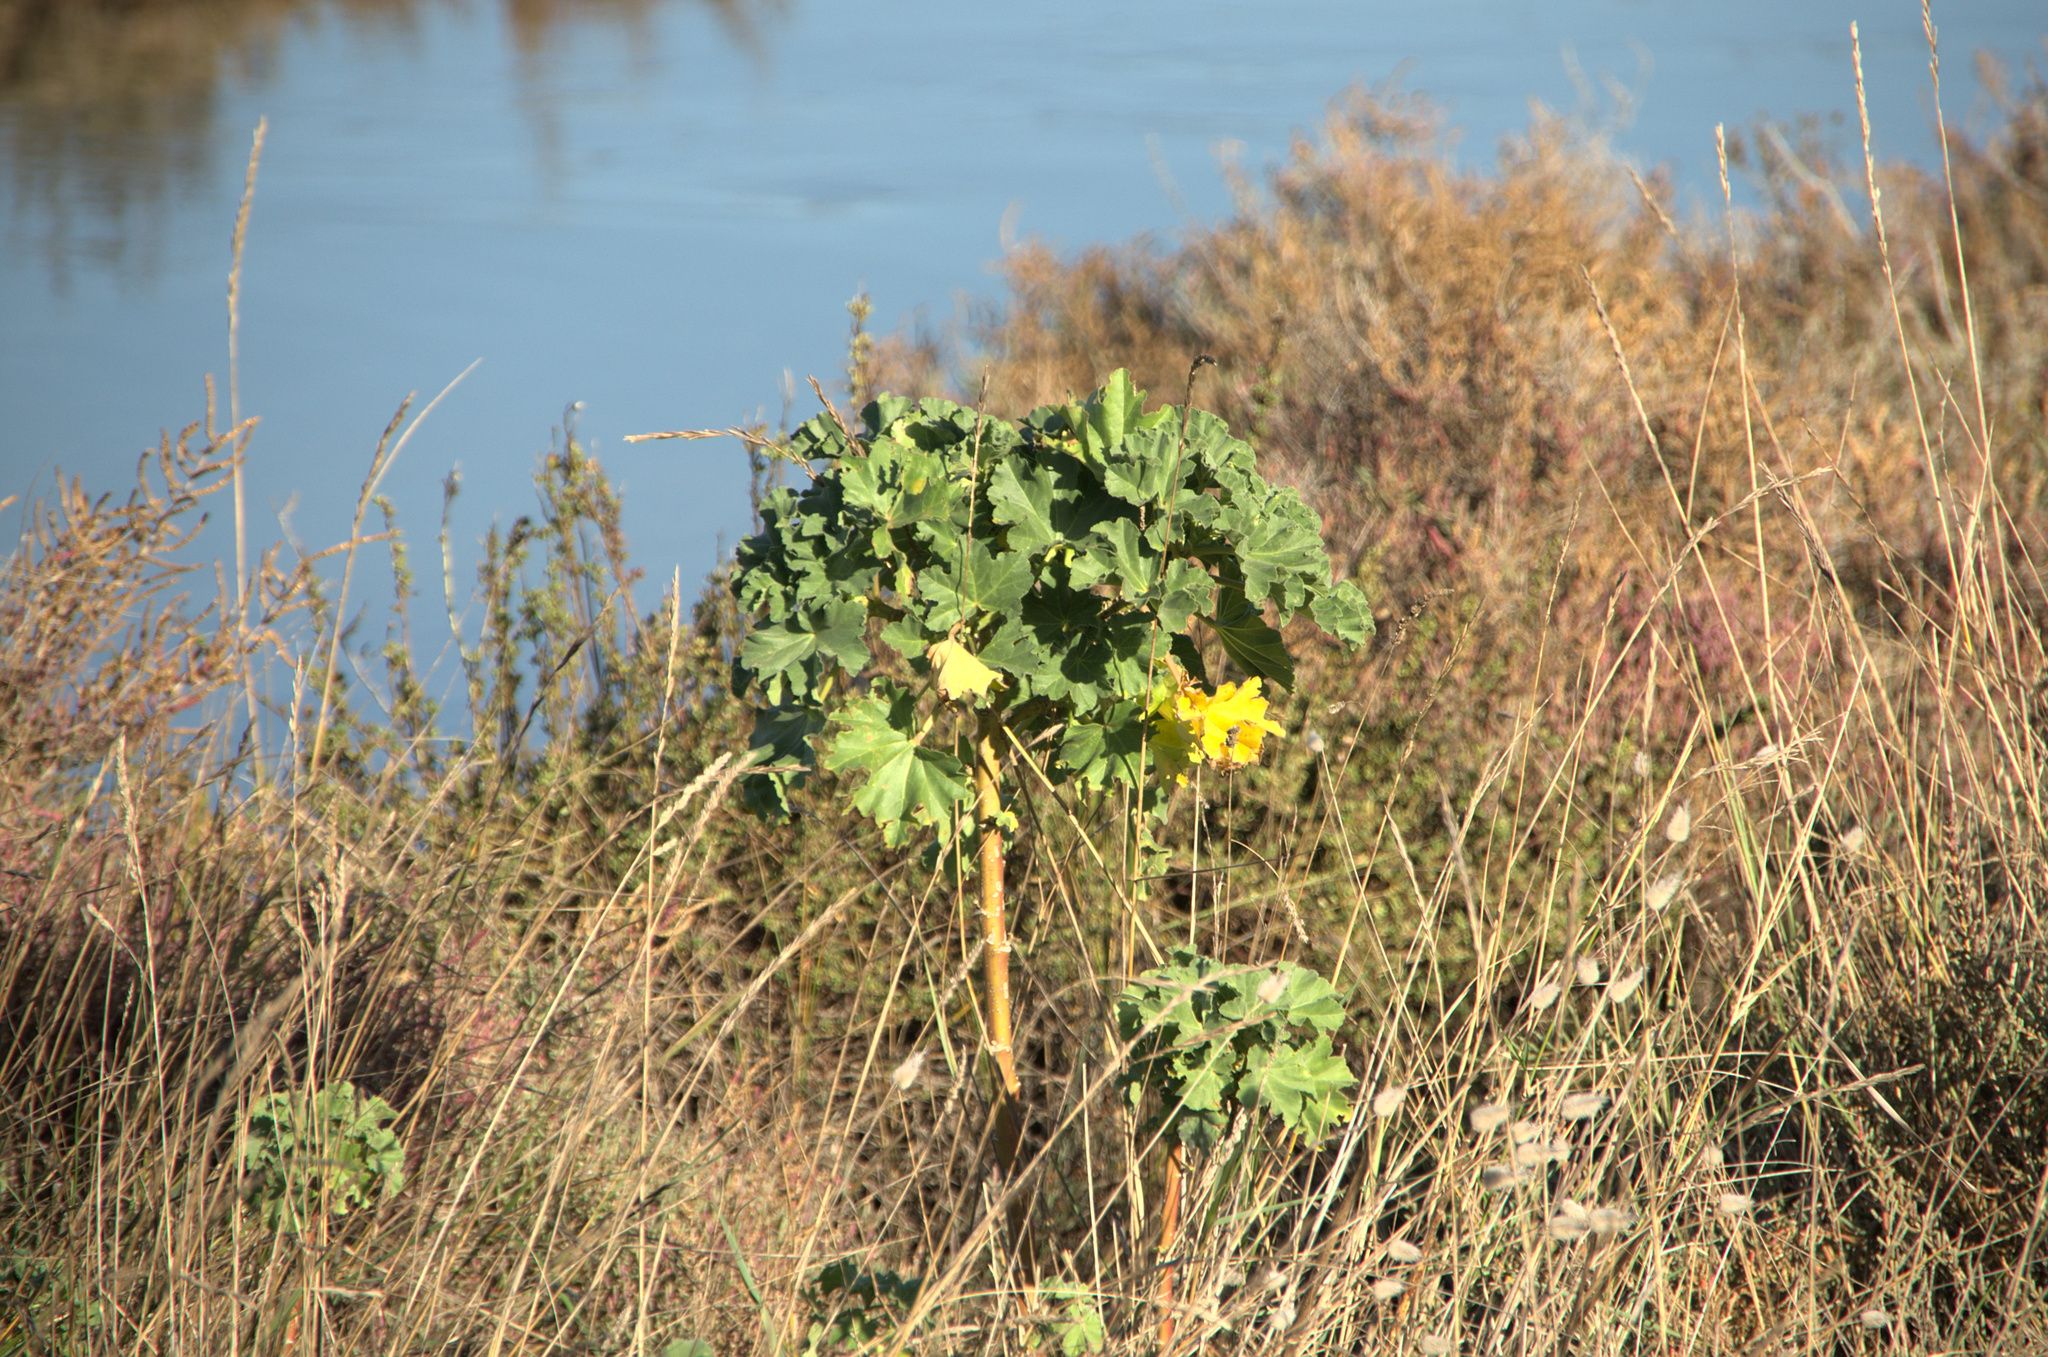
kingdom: Plantae
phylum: Tracheophyta
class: Magnoliopsida
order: Malvales
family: Malvaceae
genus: Malva
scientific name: Malva arborea
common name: Tree mallow
